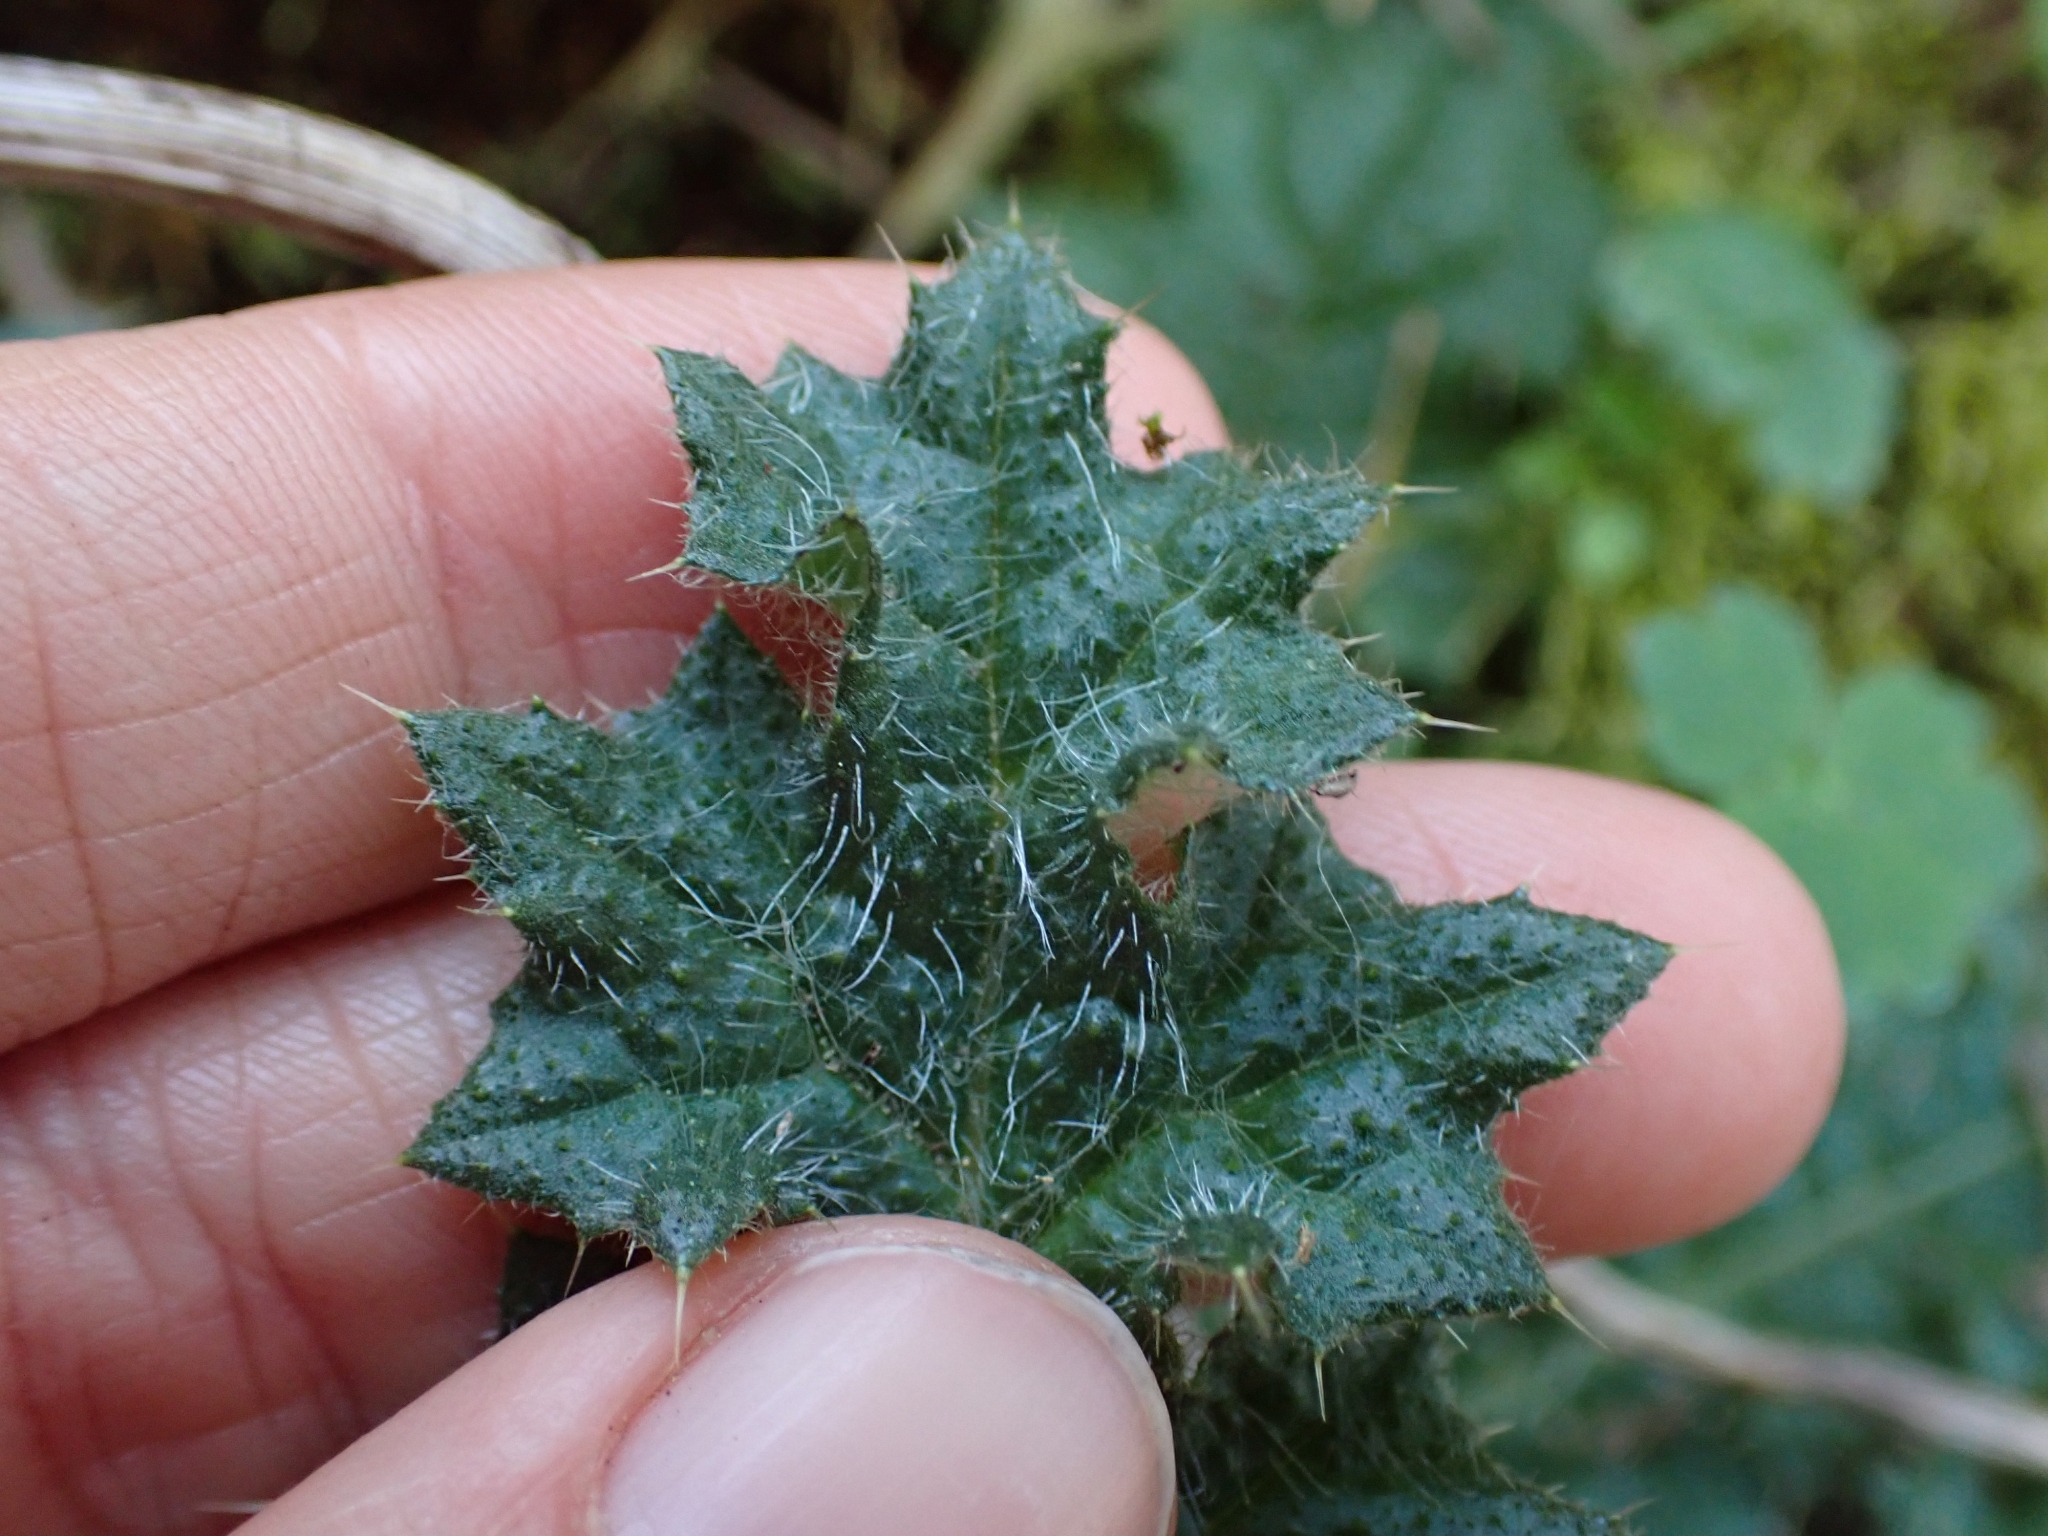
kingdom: Plantae
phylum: Tracheophyta
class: Magnoliopsida
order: Asterales
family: Asteraceae
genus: Cirsium
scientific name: Cirsium vulgare
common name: Bull thistle
